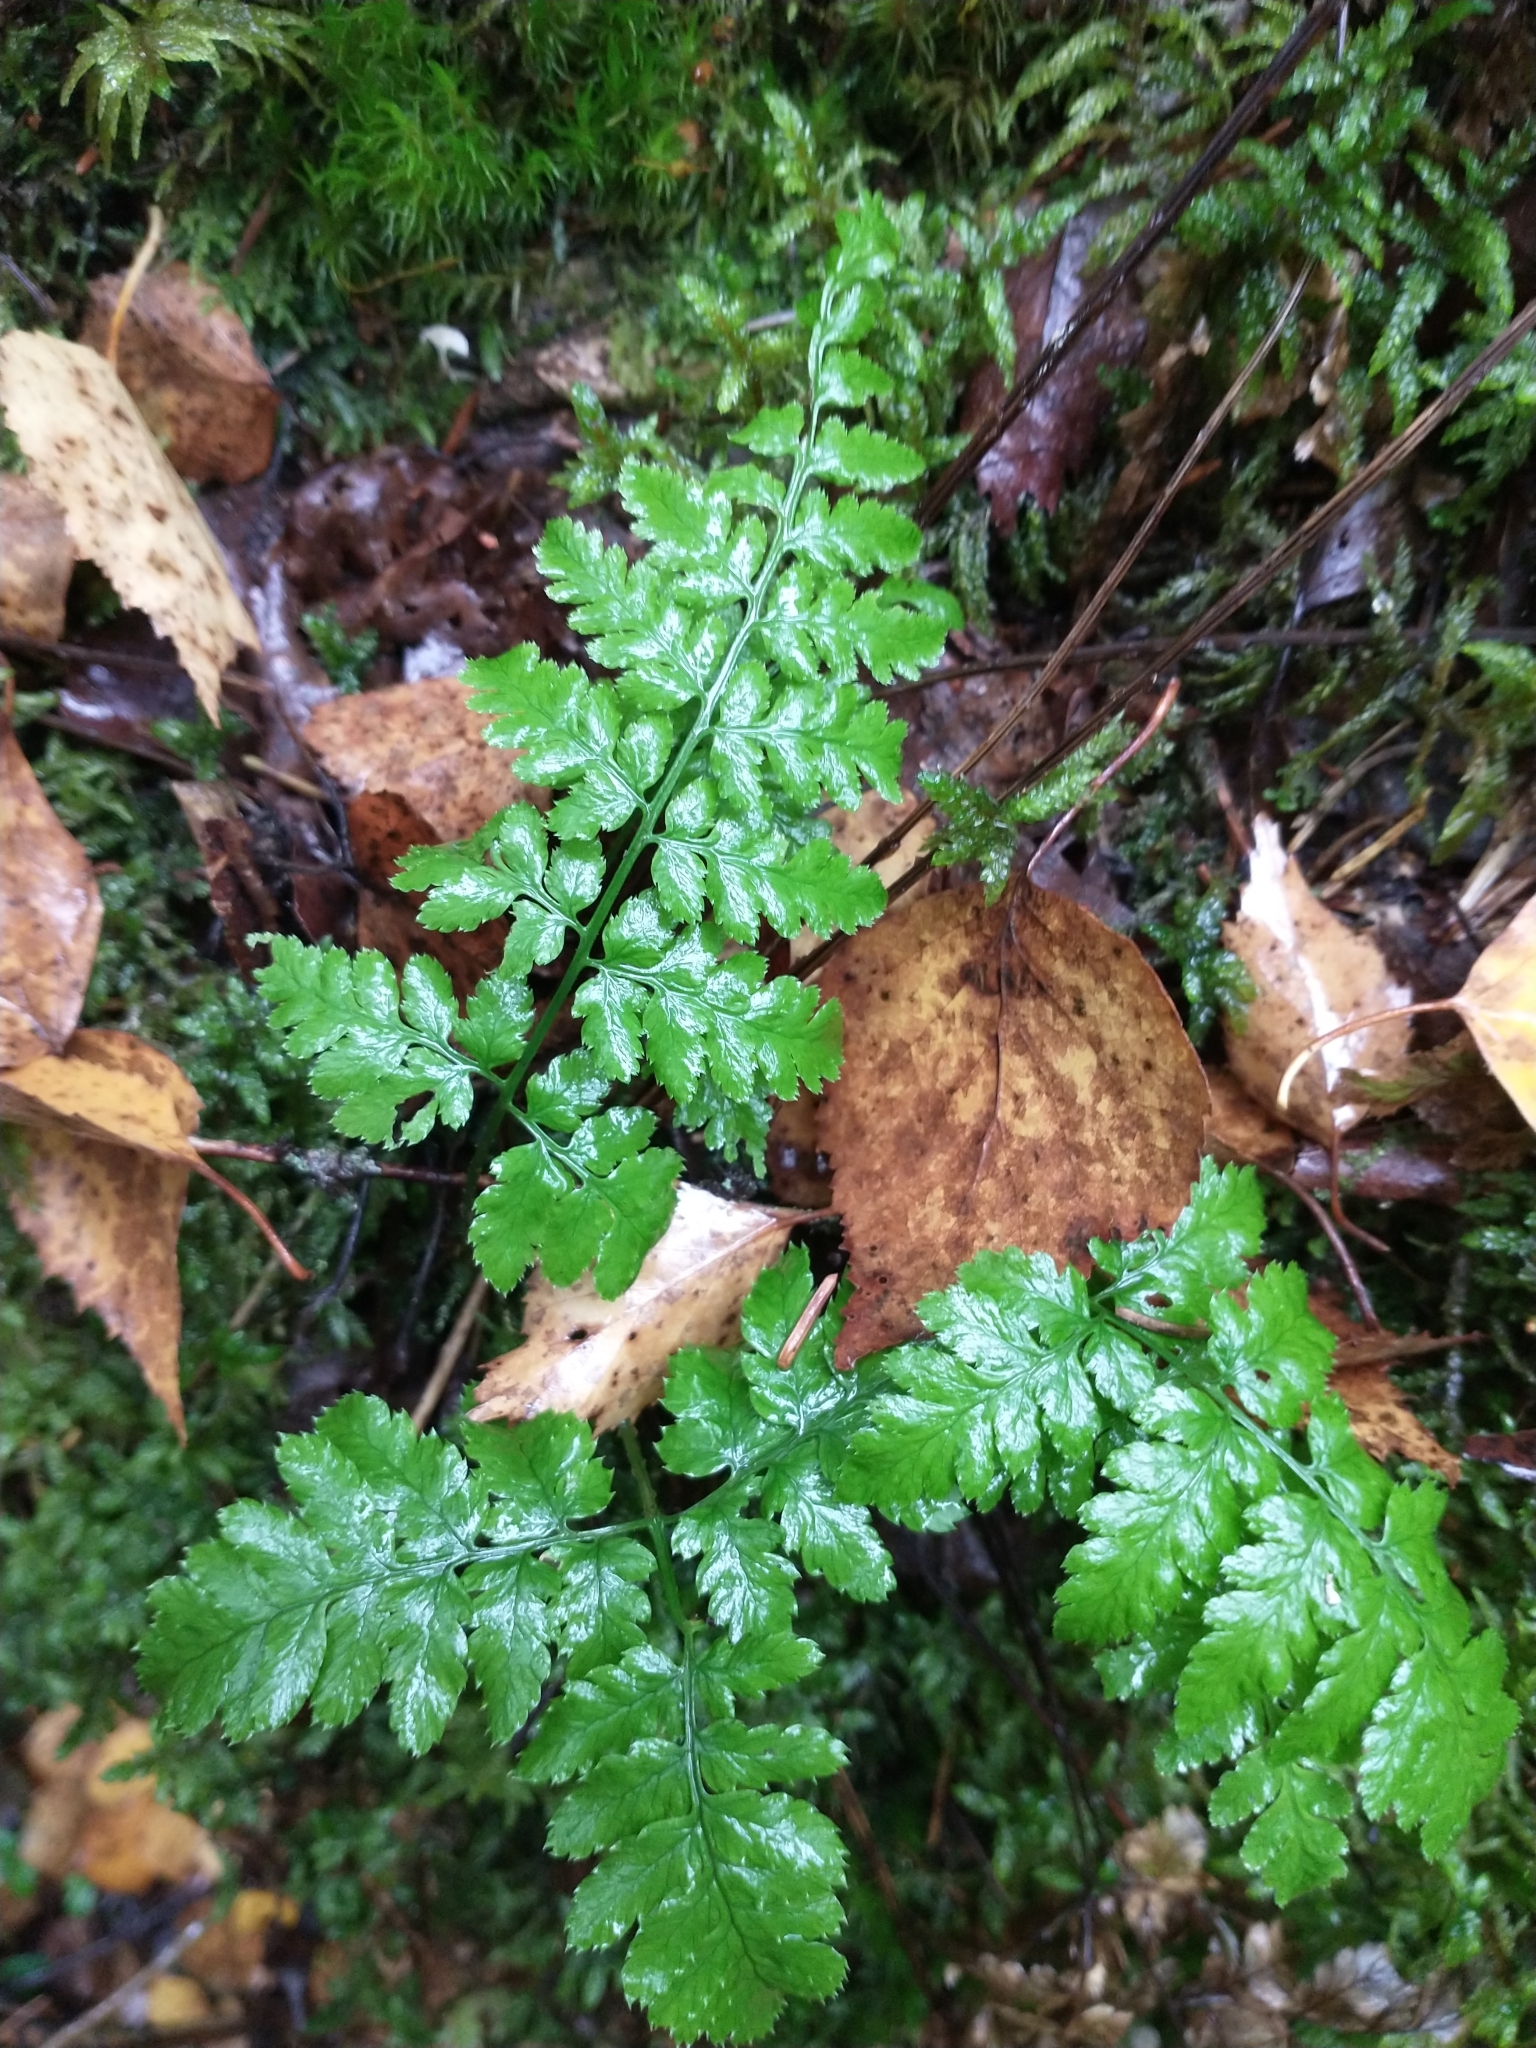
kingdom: Plantae
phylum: Tracheophyta
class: Polypodiopsida
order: Polypodiales
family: Dryopteridaceae
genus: Dryopteris
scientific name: Dryopteris cristata
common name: Crested wood fern
